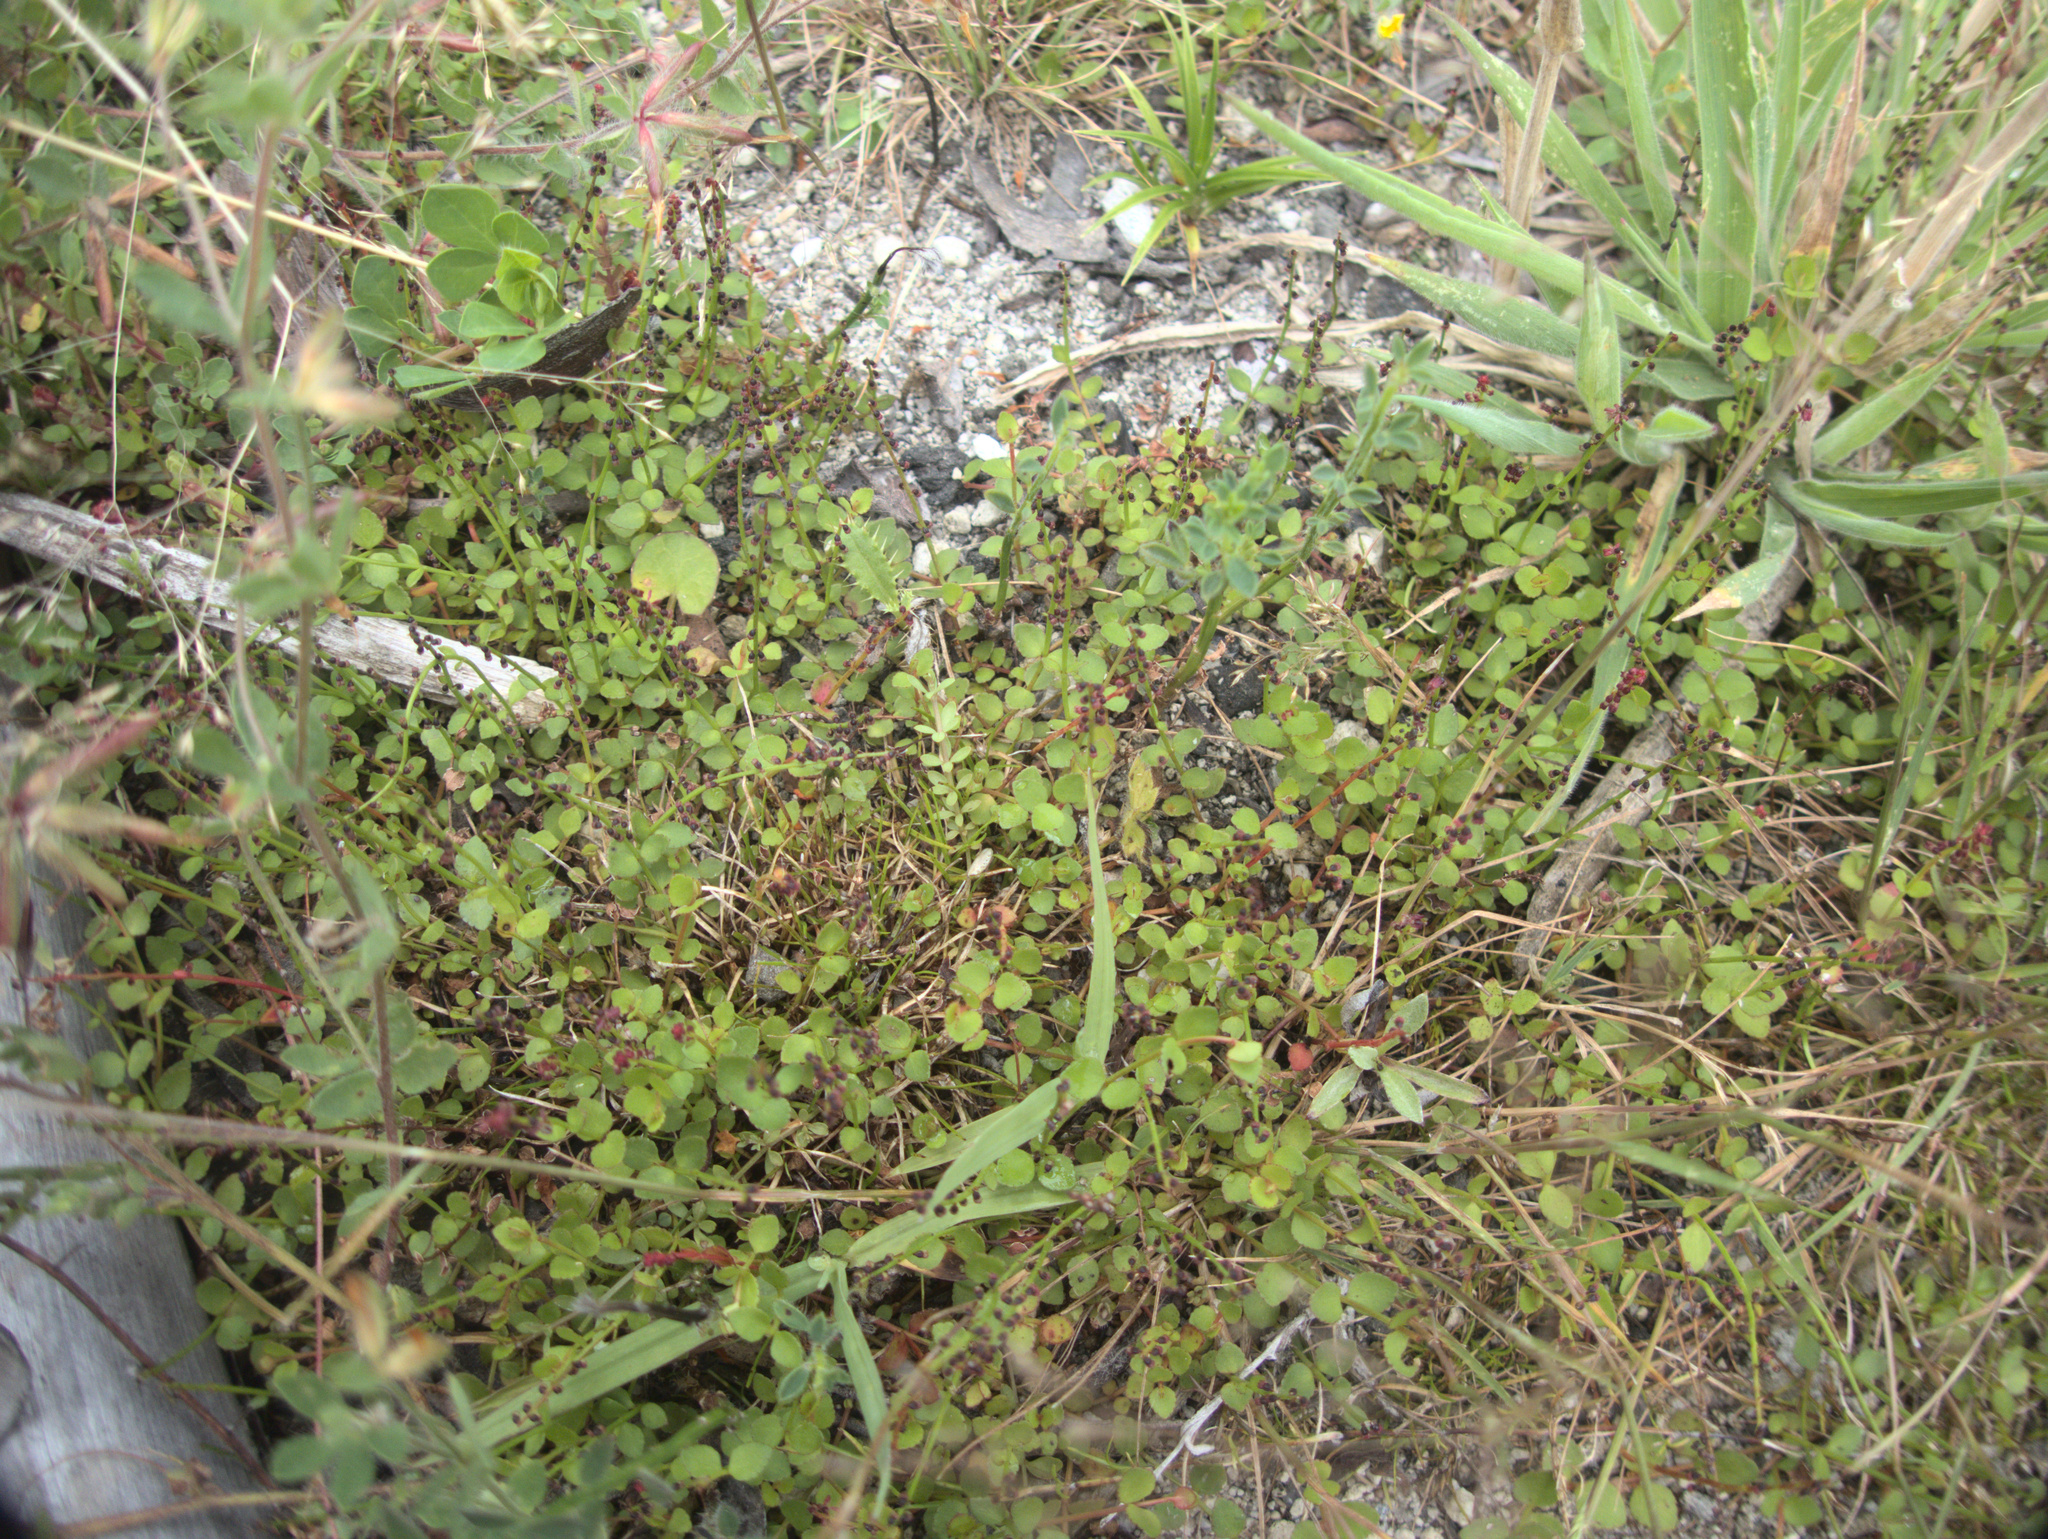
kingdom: Plantae
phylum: Tracheophyta
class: Magnoliopsida
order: Saxifragales
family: Haloragaceae
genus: Gonocarpus
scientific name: Gonocarpus micranthus
